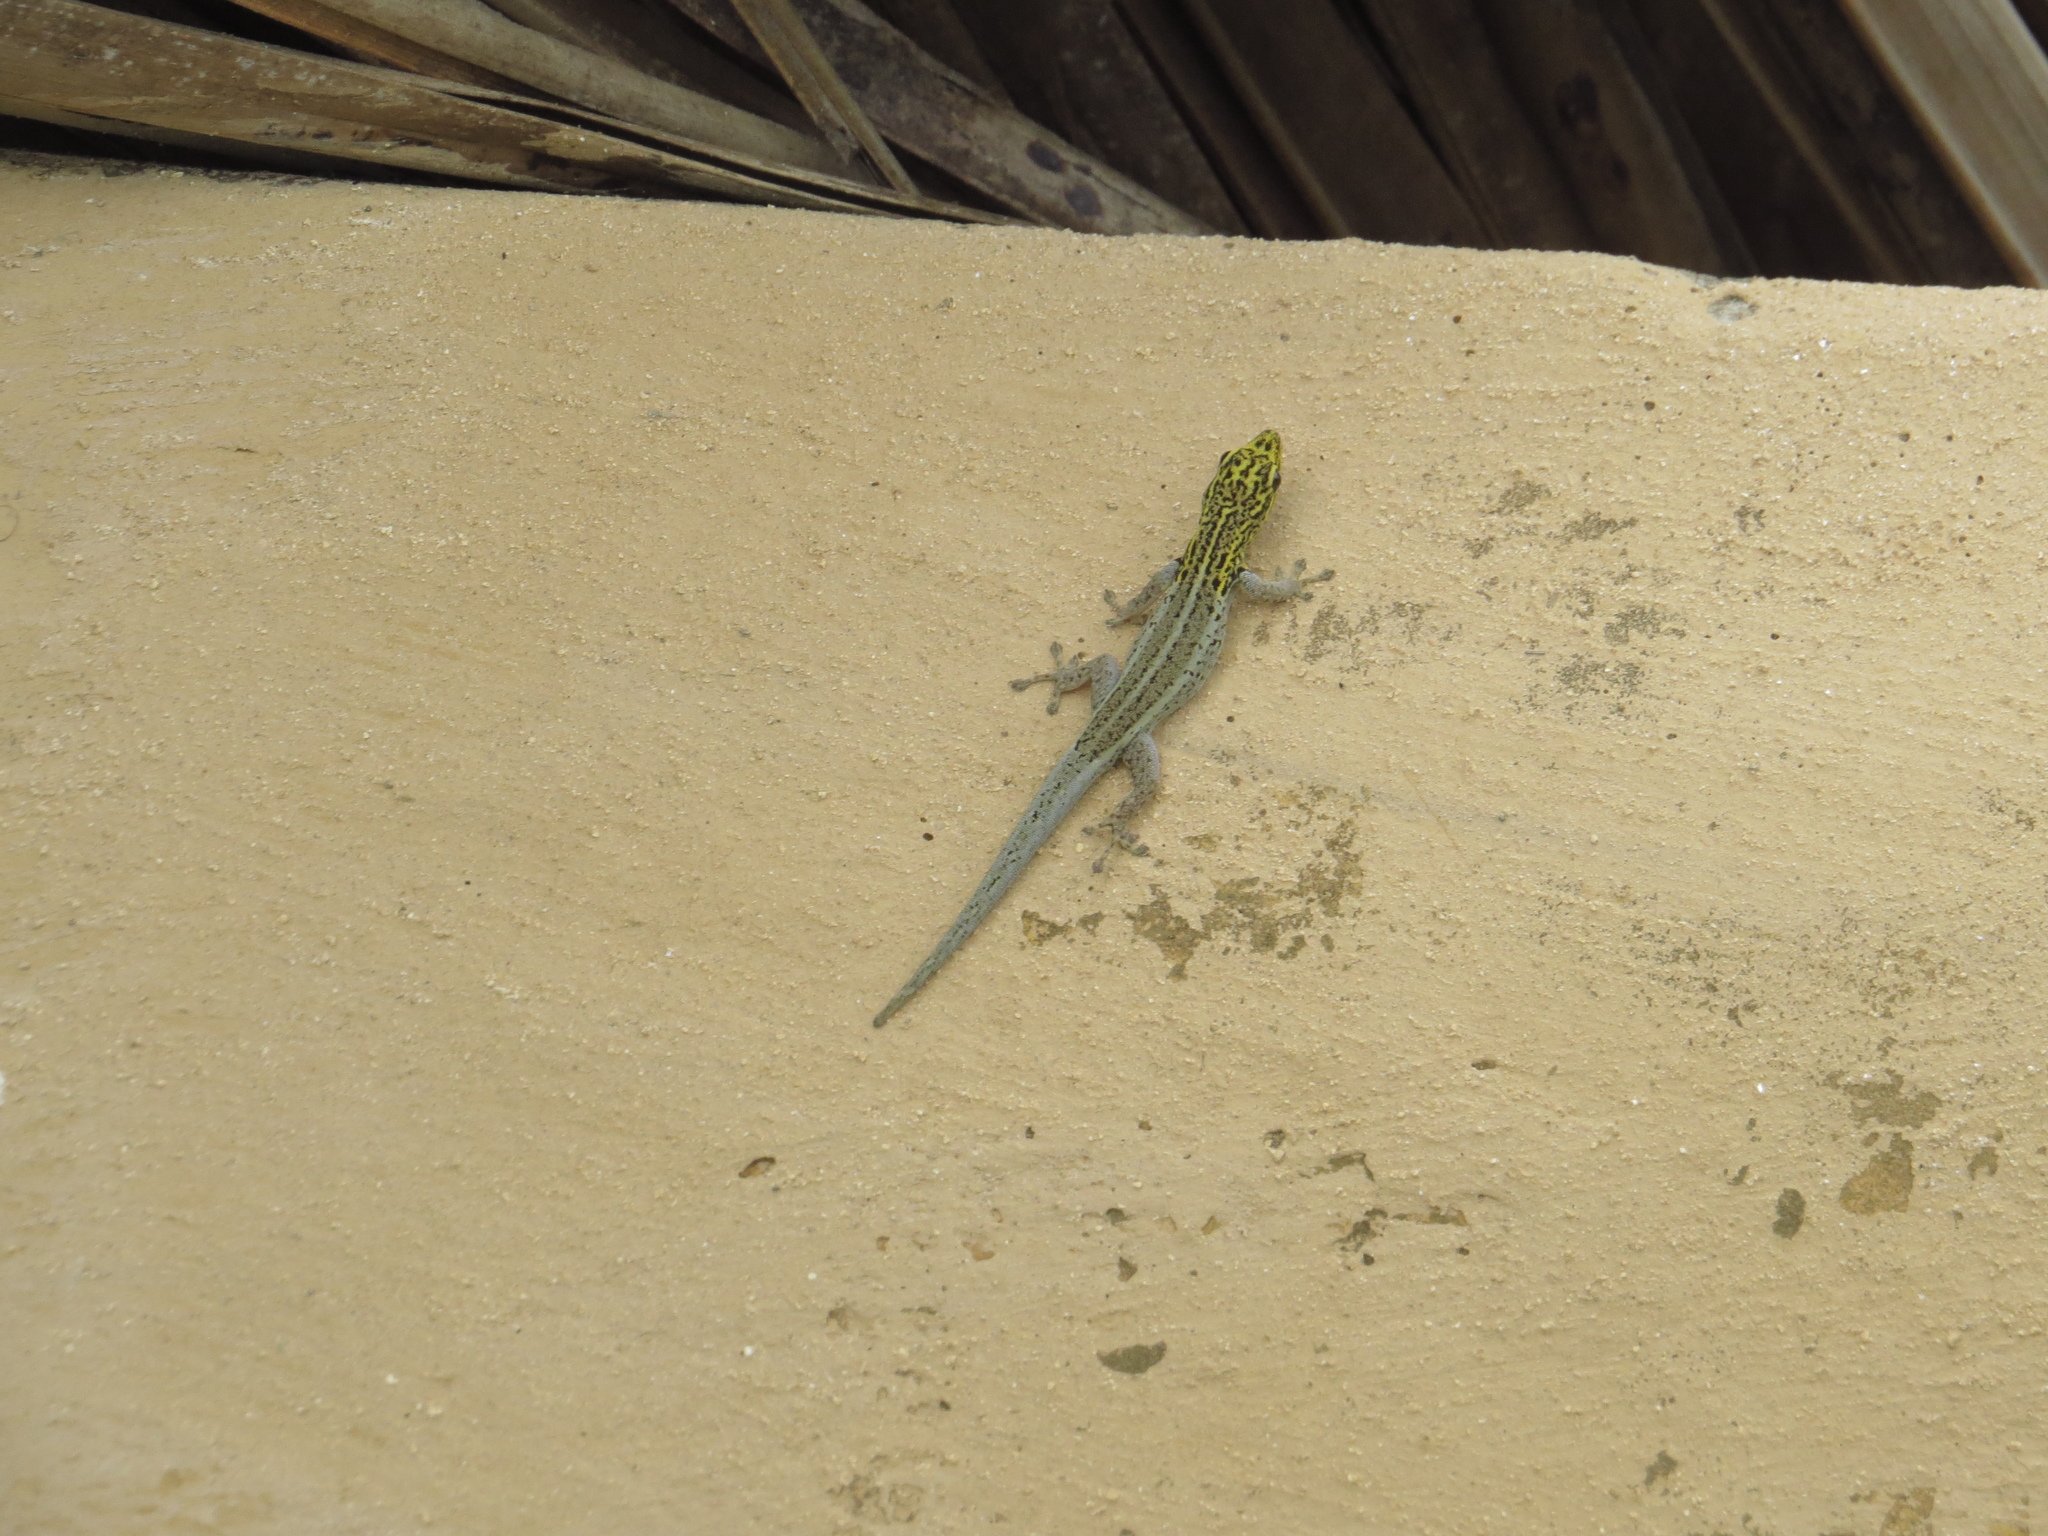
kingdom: Animalia
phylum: Chordata
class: Squamata
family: Gekkonidae
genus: Lygodactylus
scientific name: Lygodactylus picturatus
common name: Painted dwarf gecko
